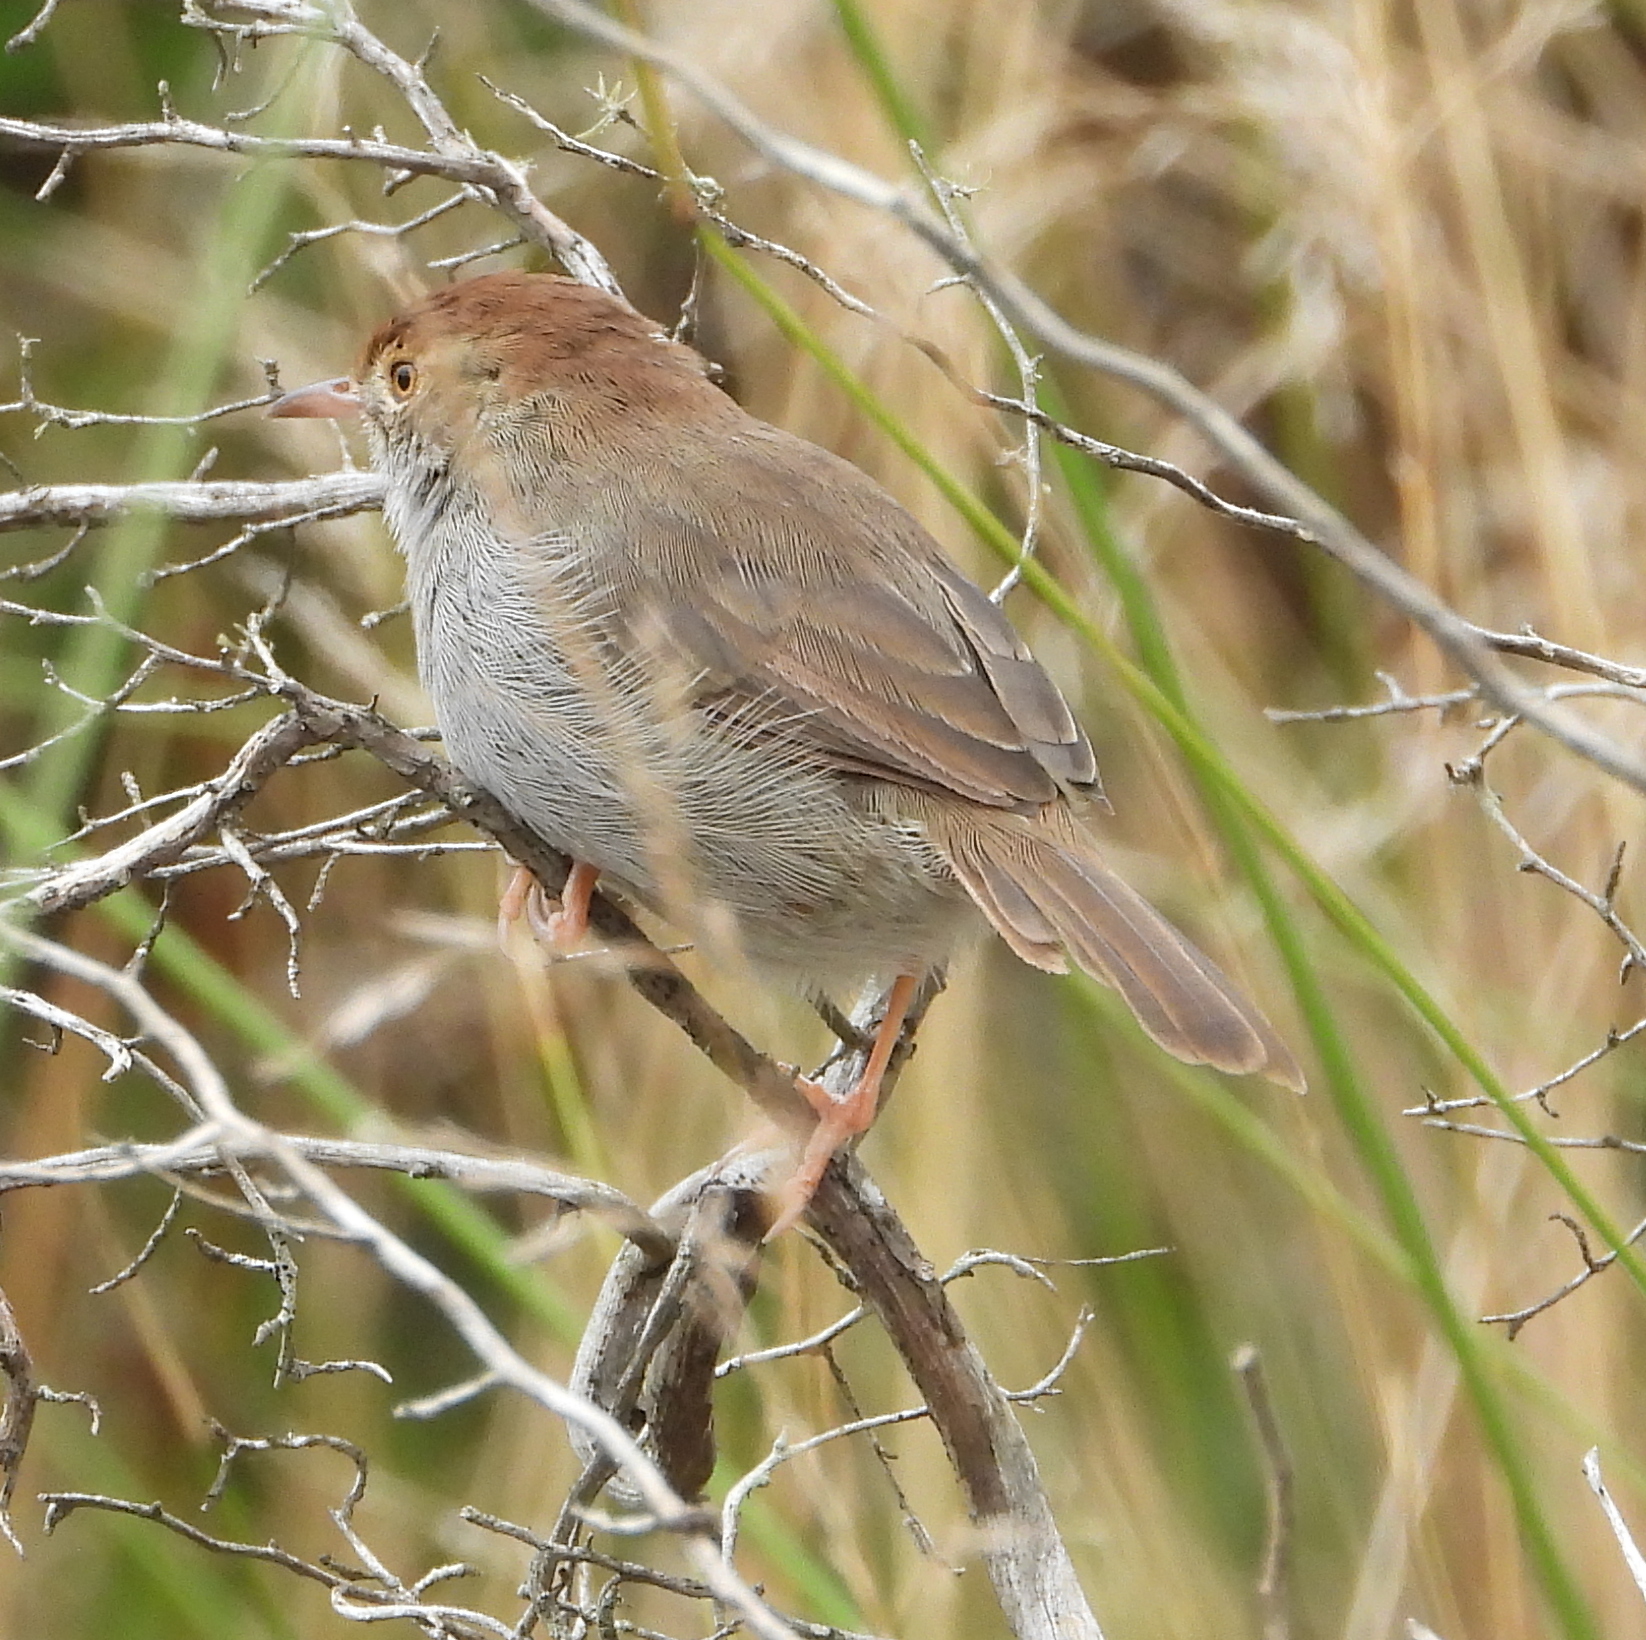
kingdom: Animalia
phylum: Chordata
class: Aves
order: Passeriformes
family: Cisticolidae
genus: Cisticola
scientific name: Cisticola fulvicapilla
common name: Neddicky
